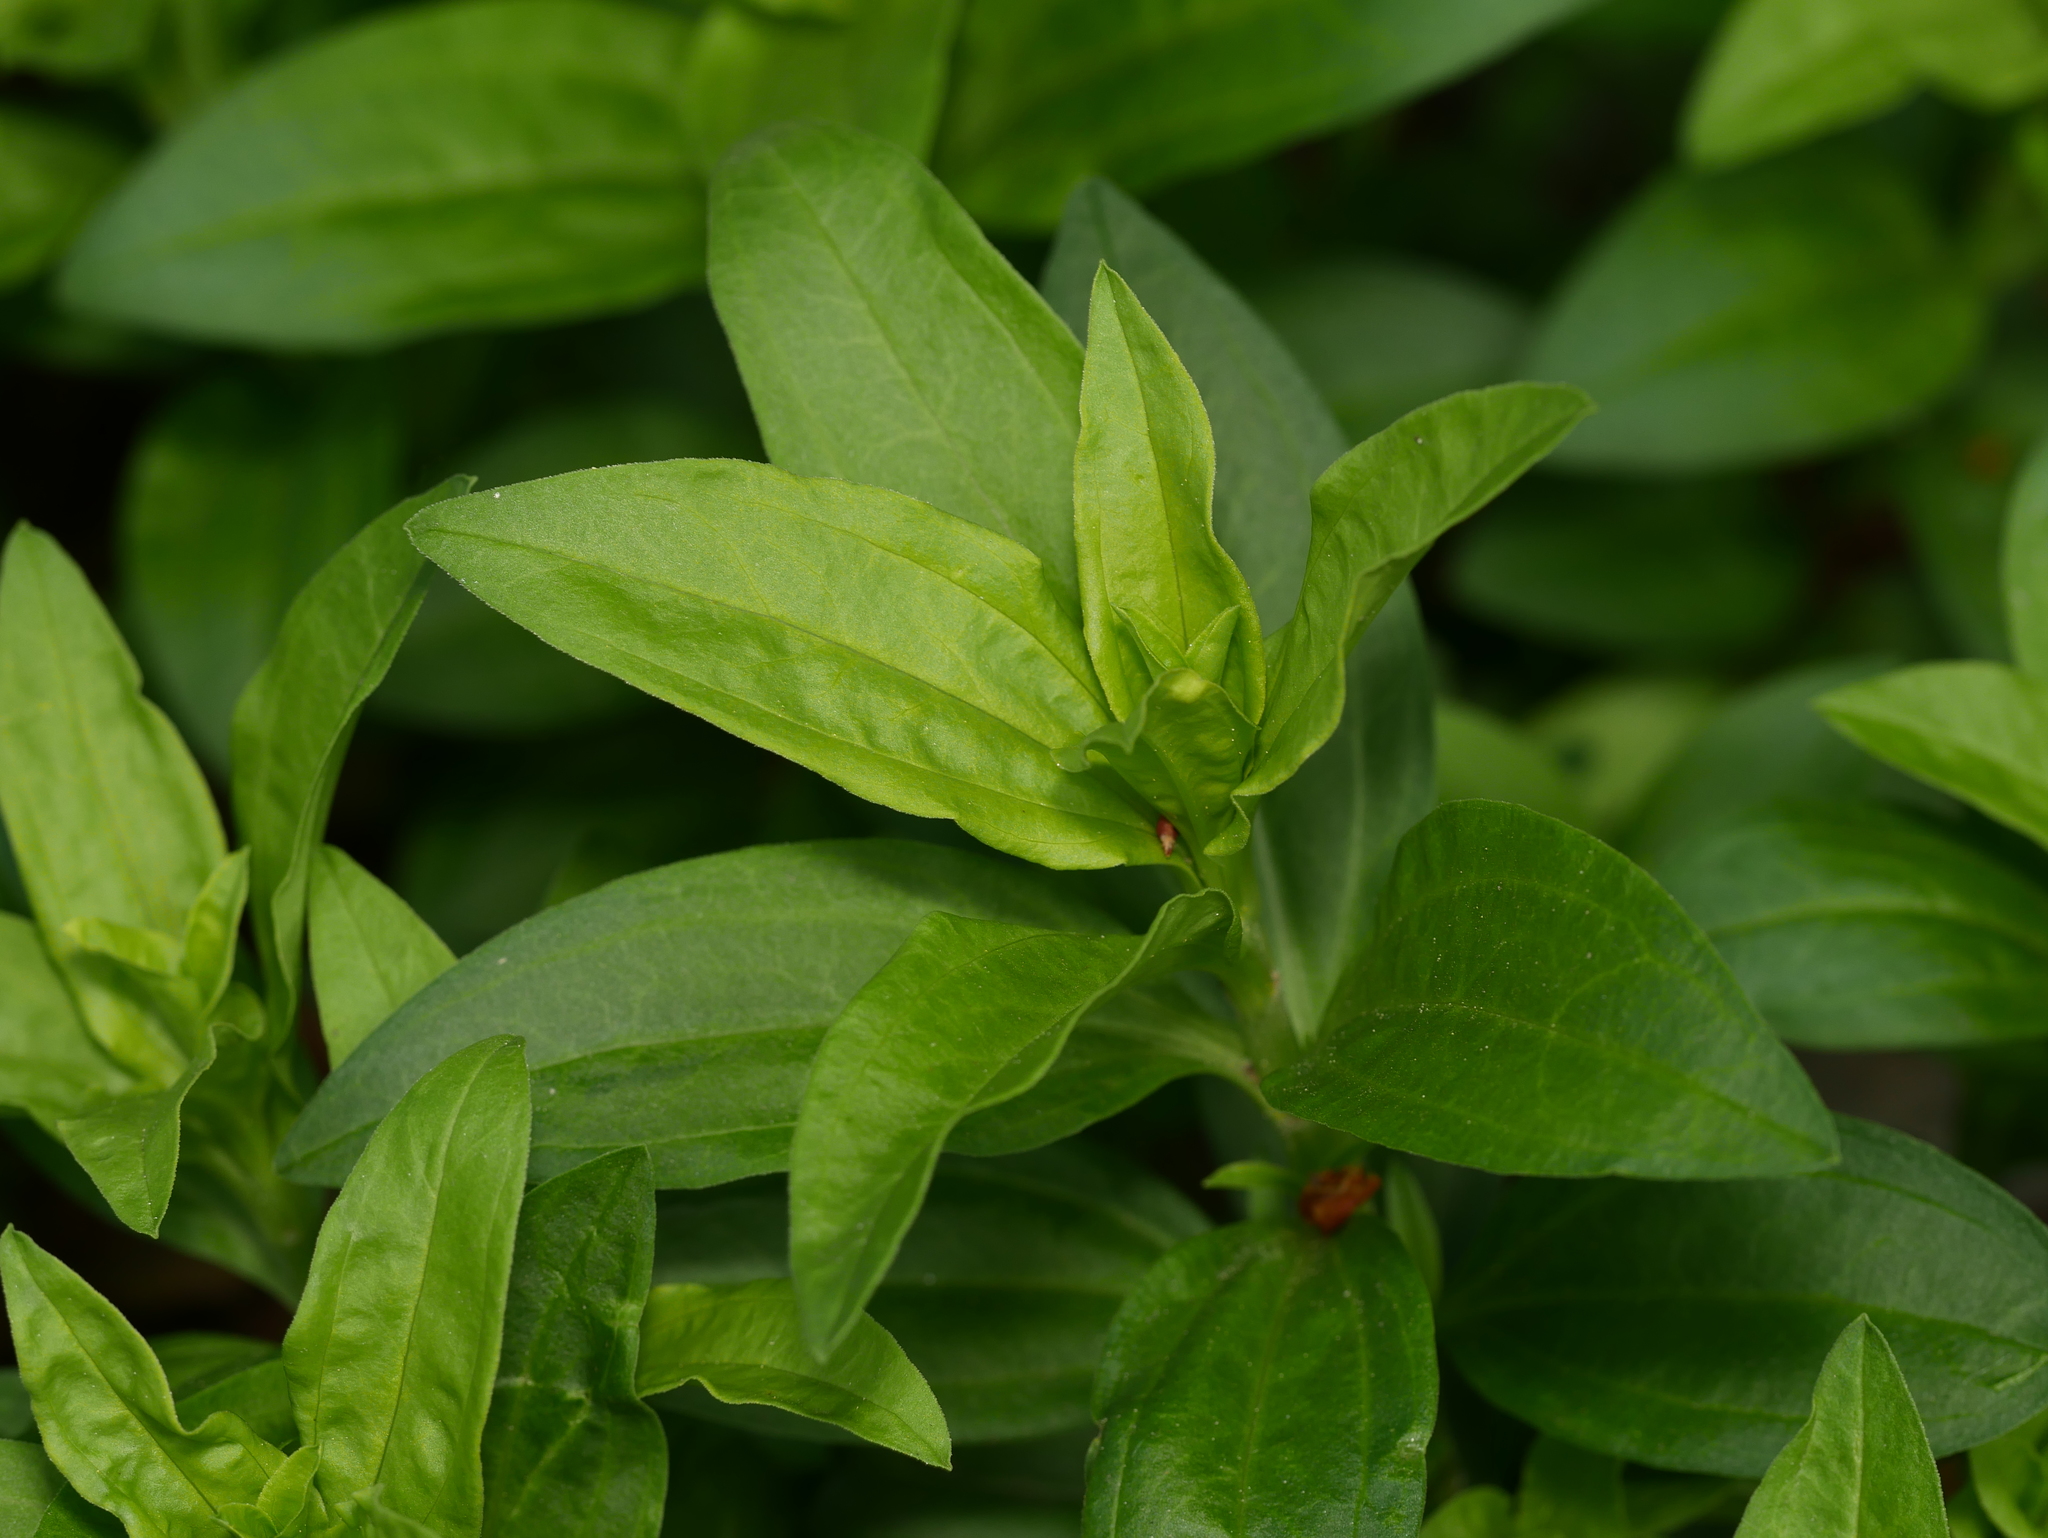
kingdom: Plantae
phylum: Tracheophyta
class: Magnoliopsida
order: Caryophyllales
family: Caryophyllaceae
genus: Saponaria
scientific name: Saponaria officinalis
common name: Soapwort
